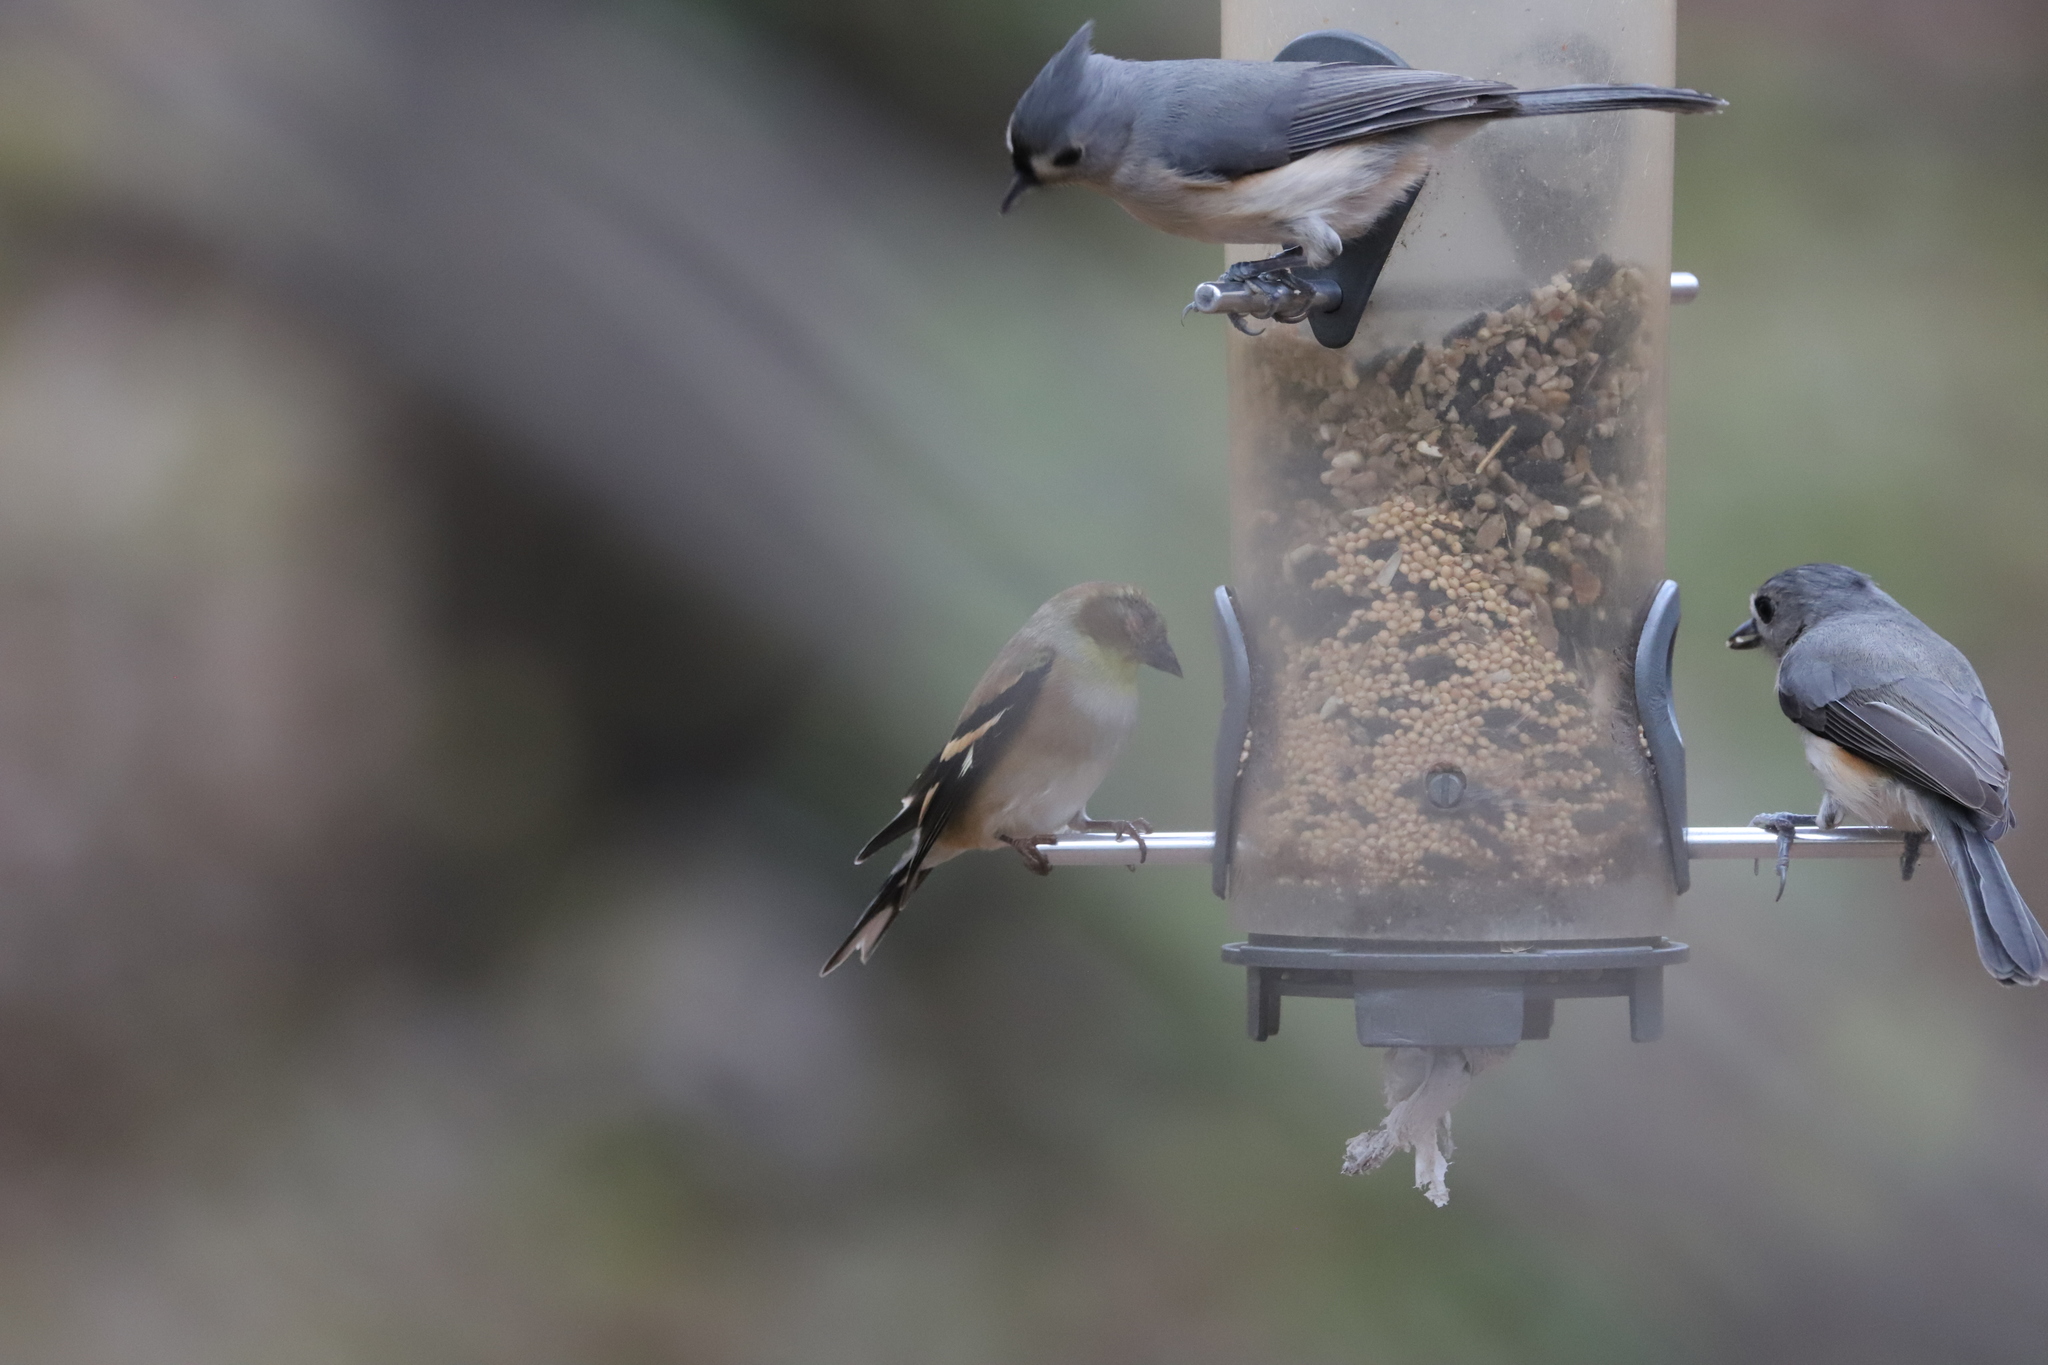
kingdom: Animalia
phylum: Chordata
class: Aves
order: Passeriformes
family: Paridae
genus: Baeolophus
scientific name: Baeolophus bicolor
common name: Tufted titmouse
